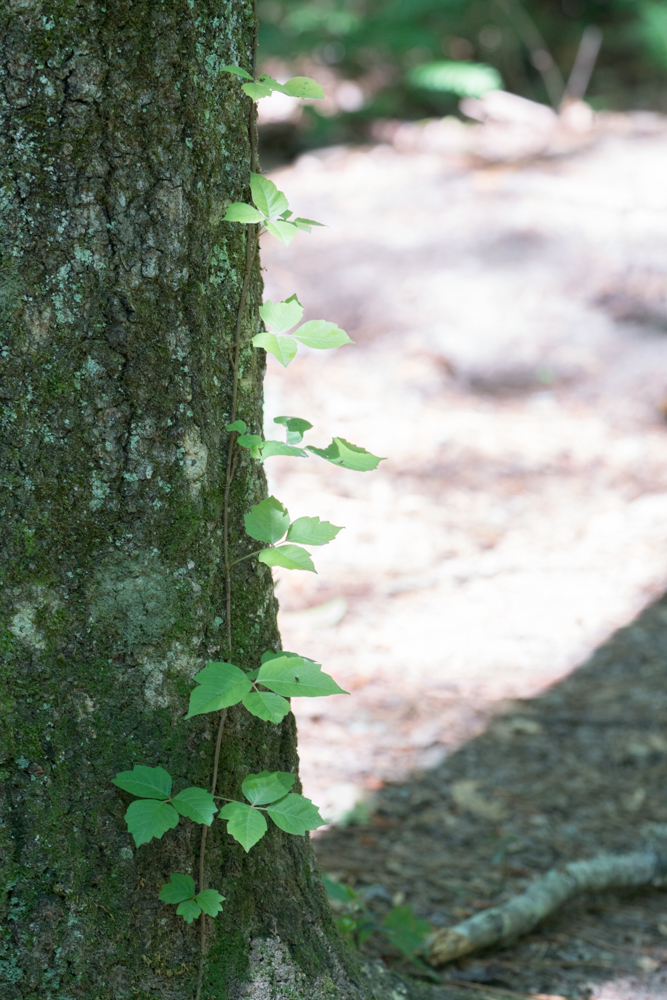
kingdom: Plantae
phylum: Tracheophyta
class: Magnoliopsida
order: Sapindales
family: Anacardiaceae
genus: Toxicodendron
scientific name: Toxicodendron radicans
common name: Poison ivy
